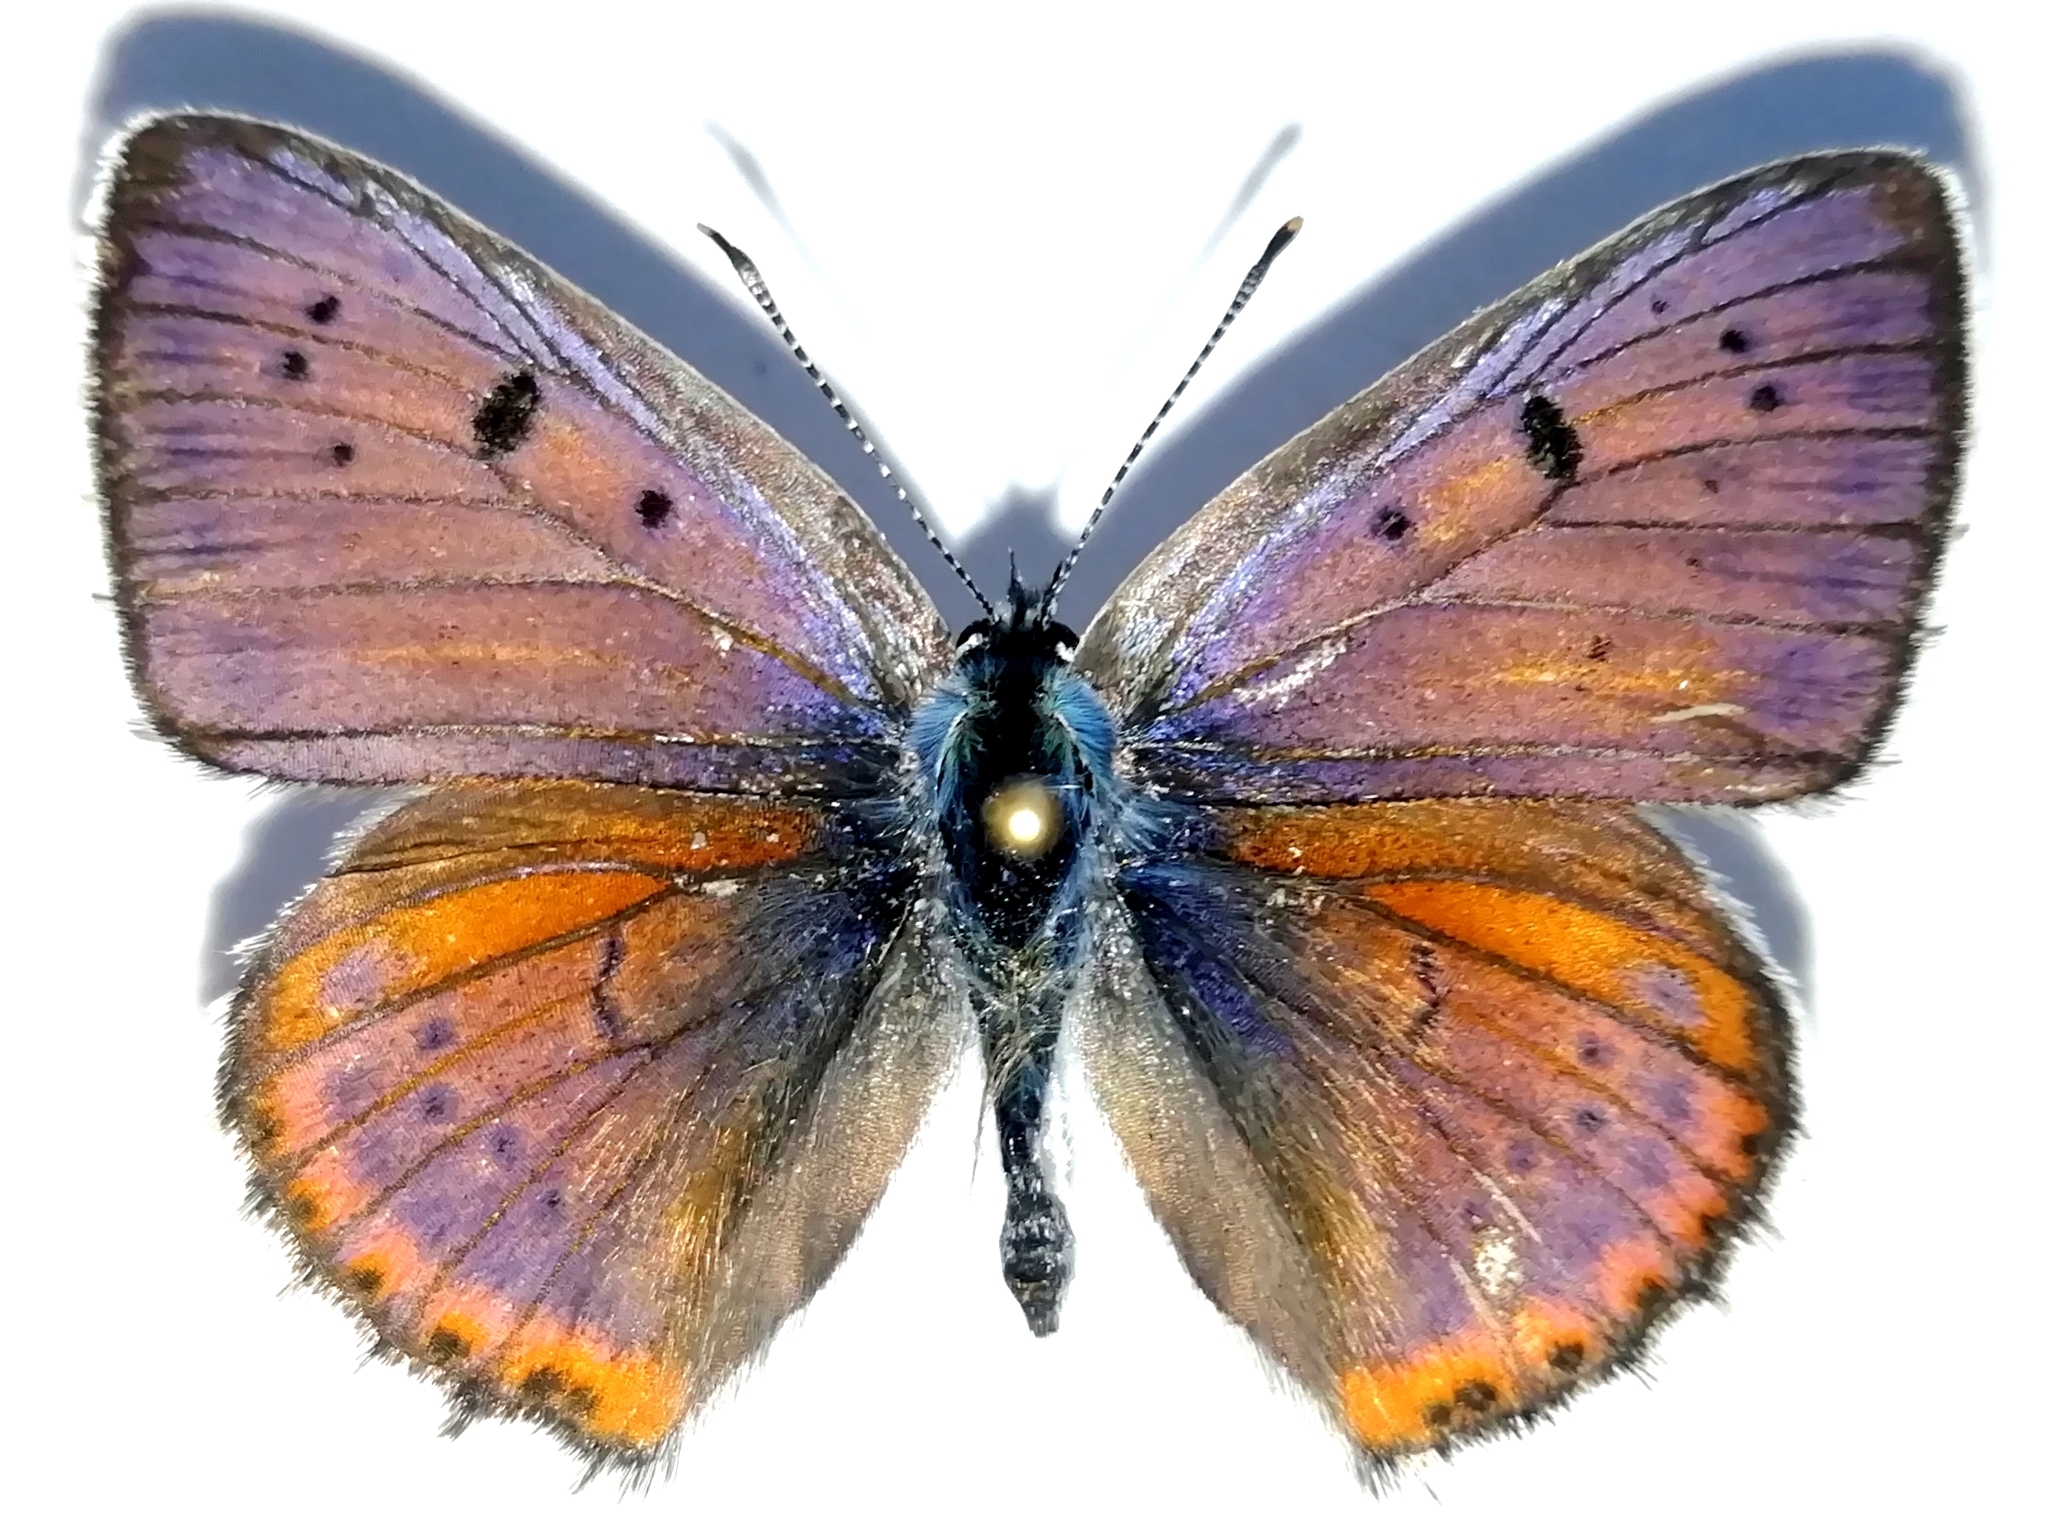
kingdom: Animalia
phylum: Arthropoda
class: Insecta
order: Lepidoptera
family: Lycaenidae
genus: Lycaena
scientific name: Lycaena alciphron
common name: Purple-shot copper
